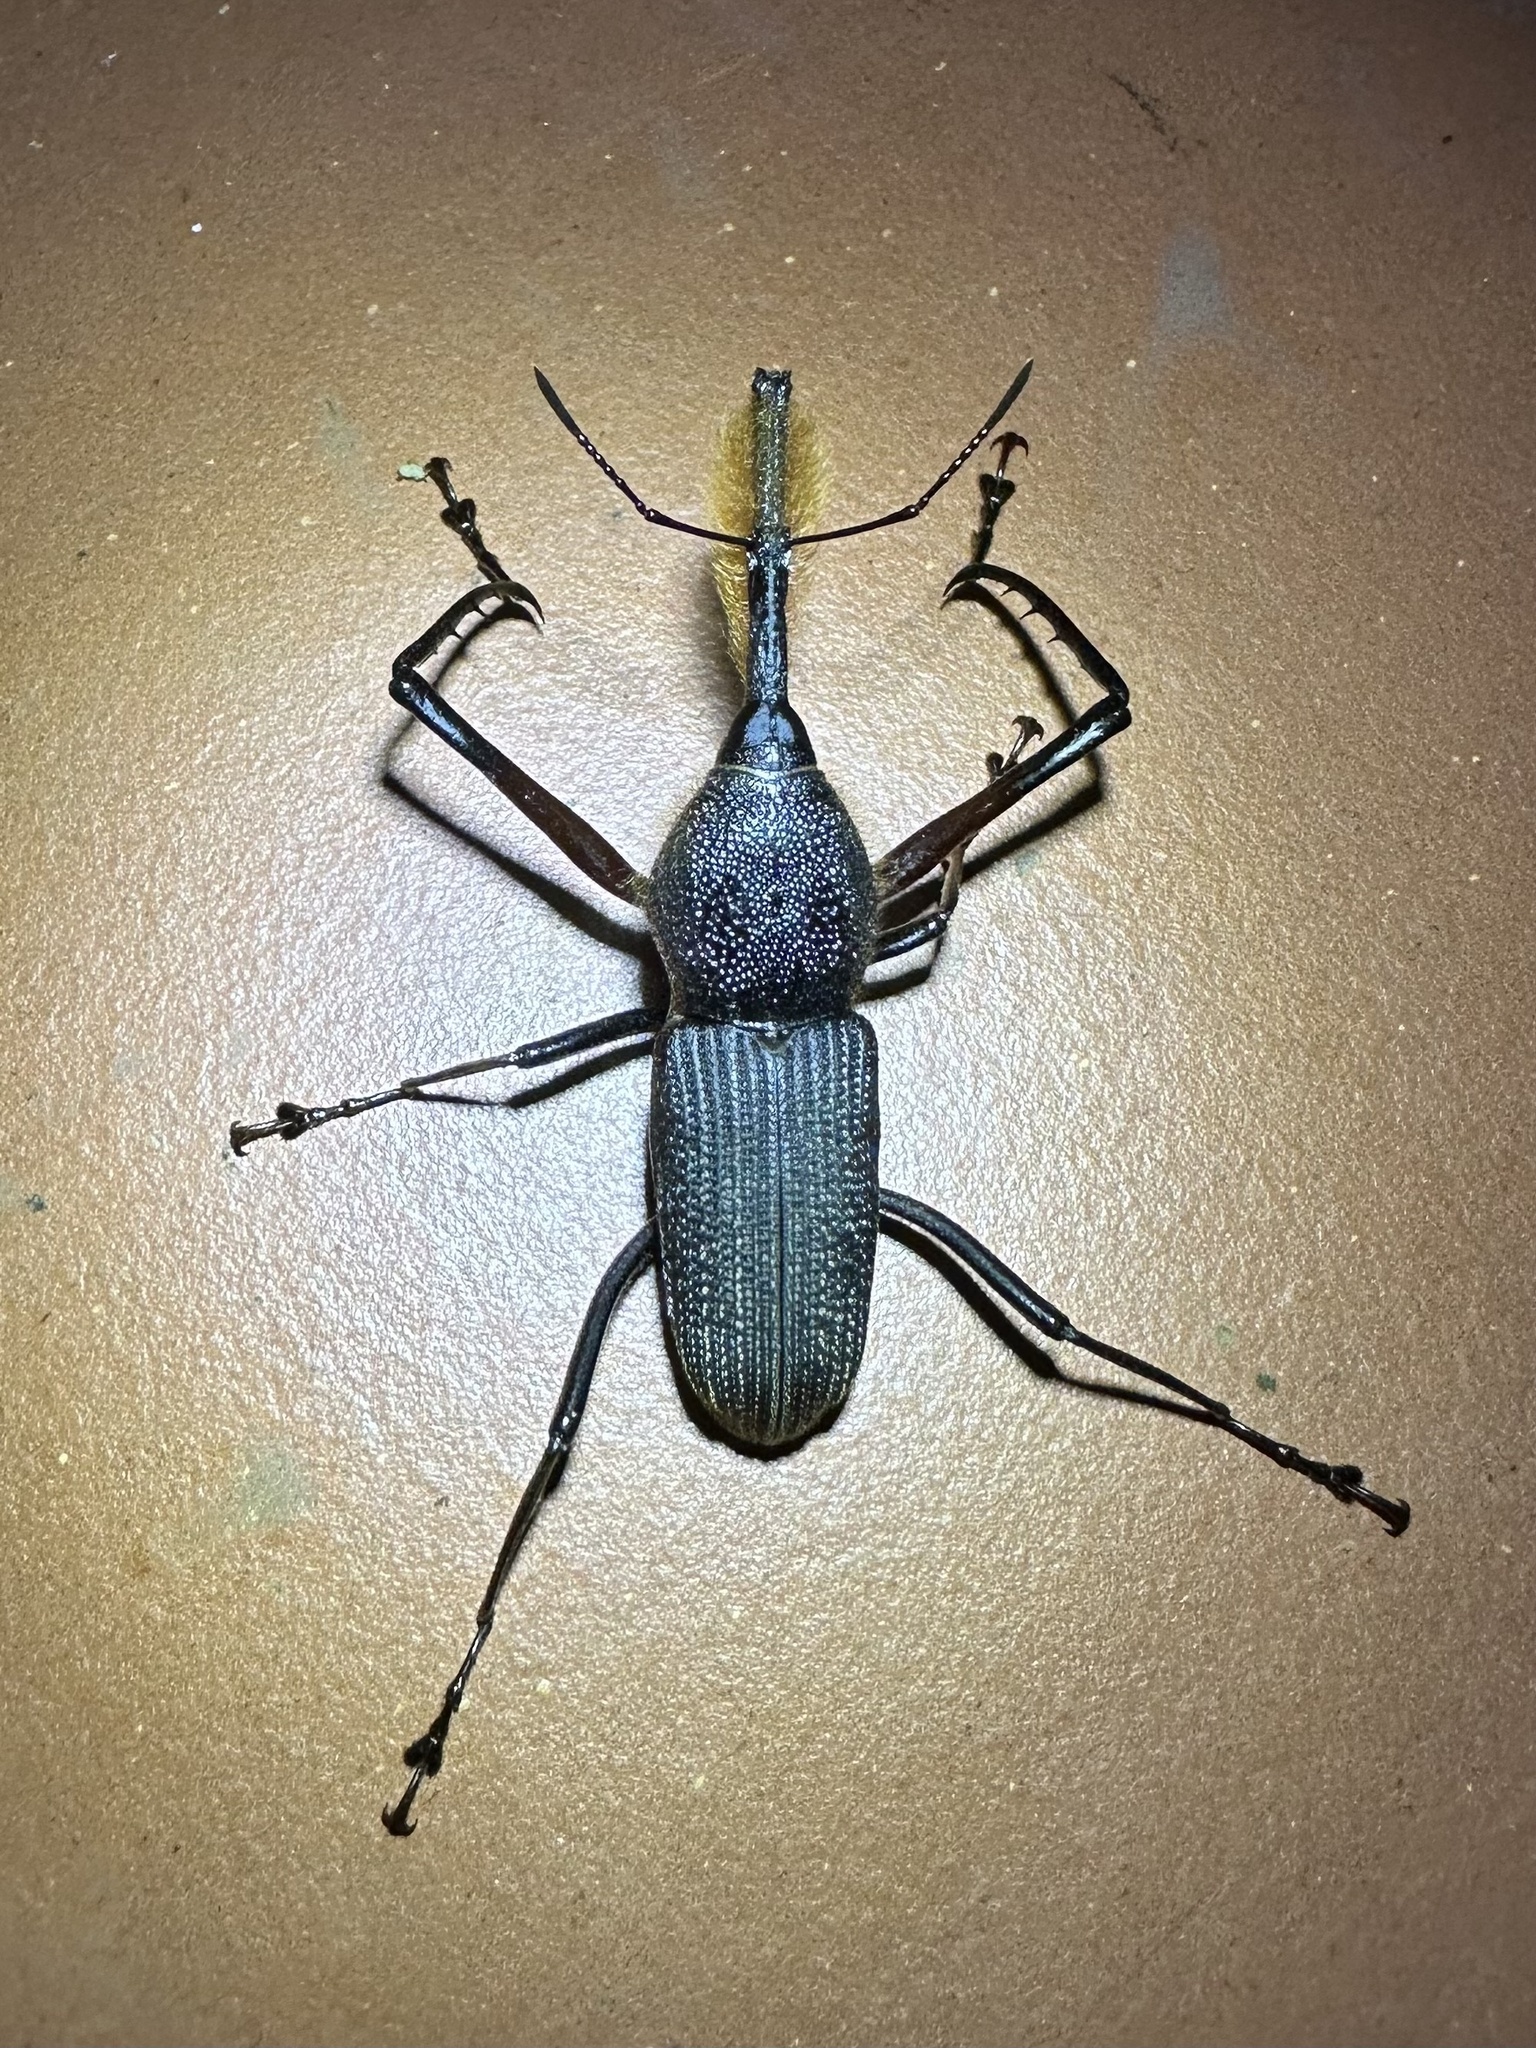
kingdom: Animalia
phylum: Arthropoda
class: Insecta
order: Coleoptera
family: Dryophthoridae
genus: Rhinostomus
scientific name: Rhinostomus barbirostris
